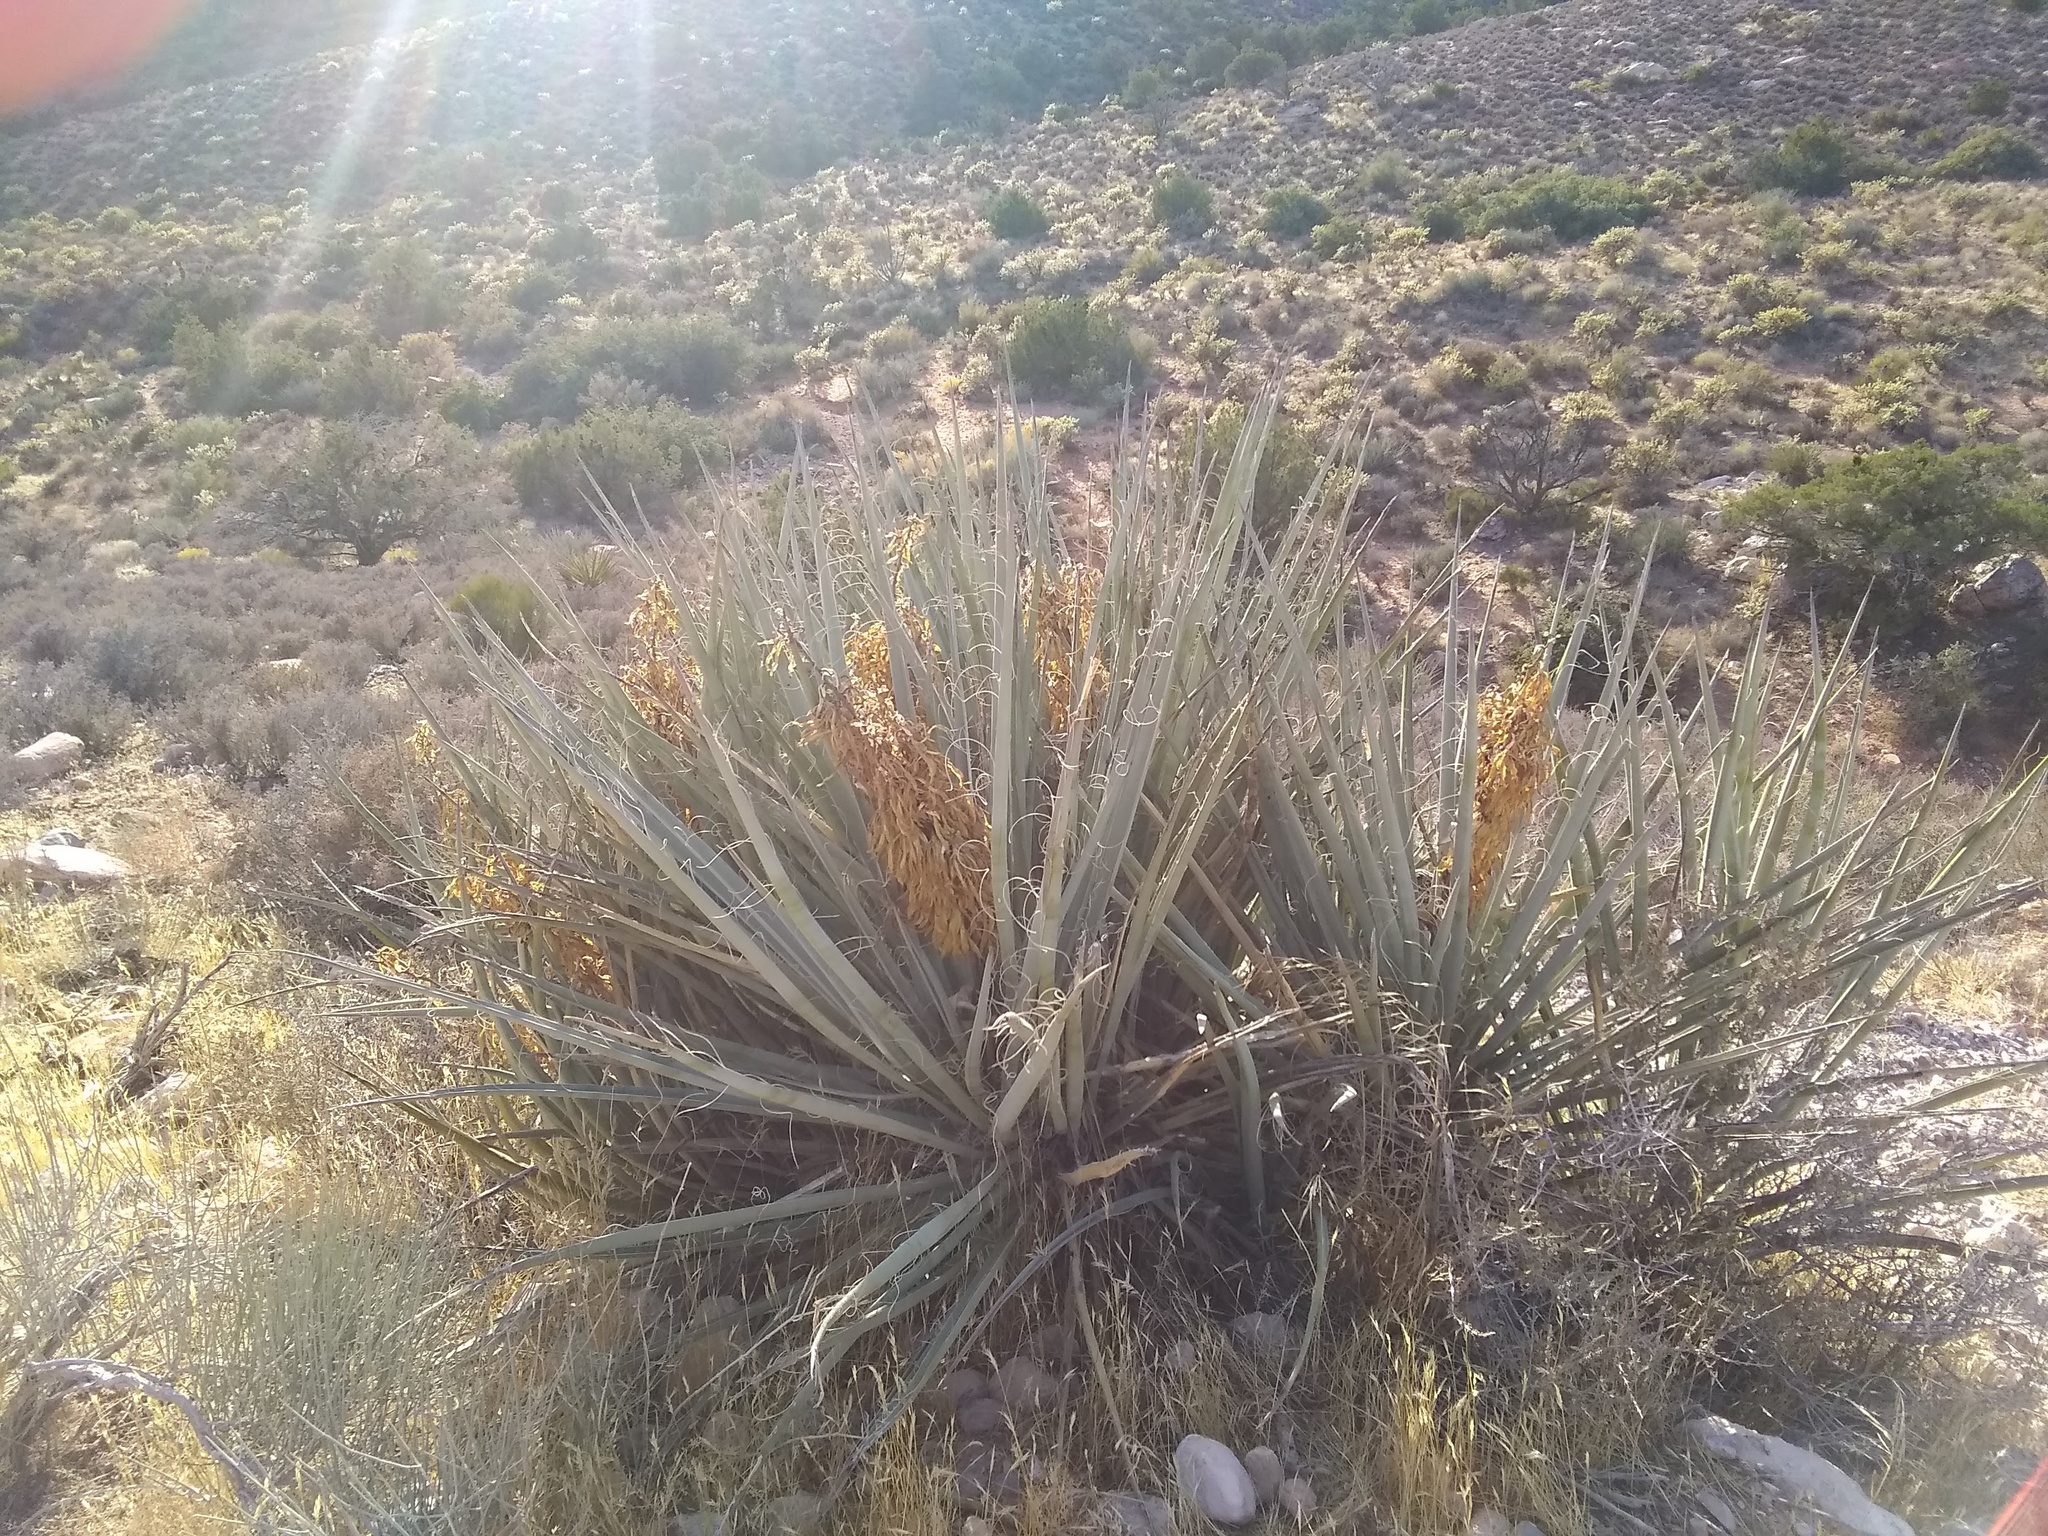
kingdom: Plantae
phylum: Tracheophyta
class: Liliopsida
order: Asparagales
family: Asparagaceae
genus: Yucca
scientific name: Yucca baccata
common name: Banana yucca
